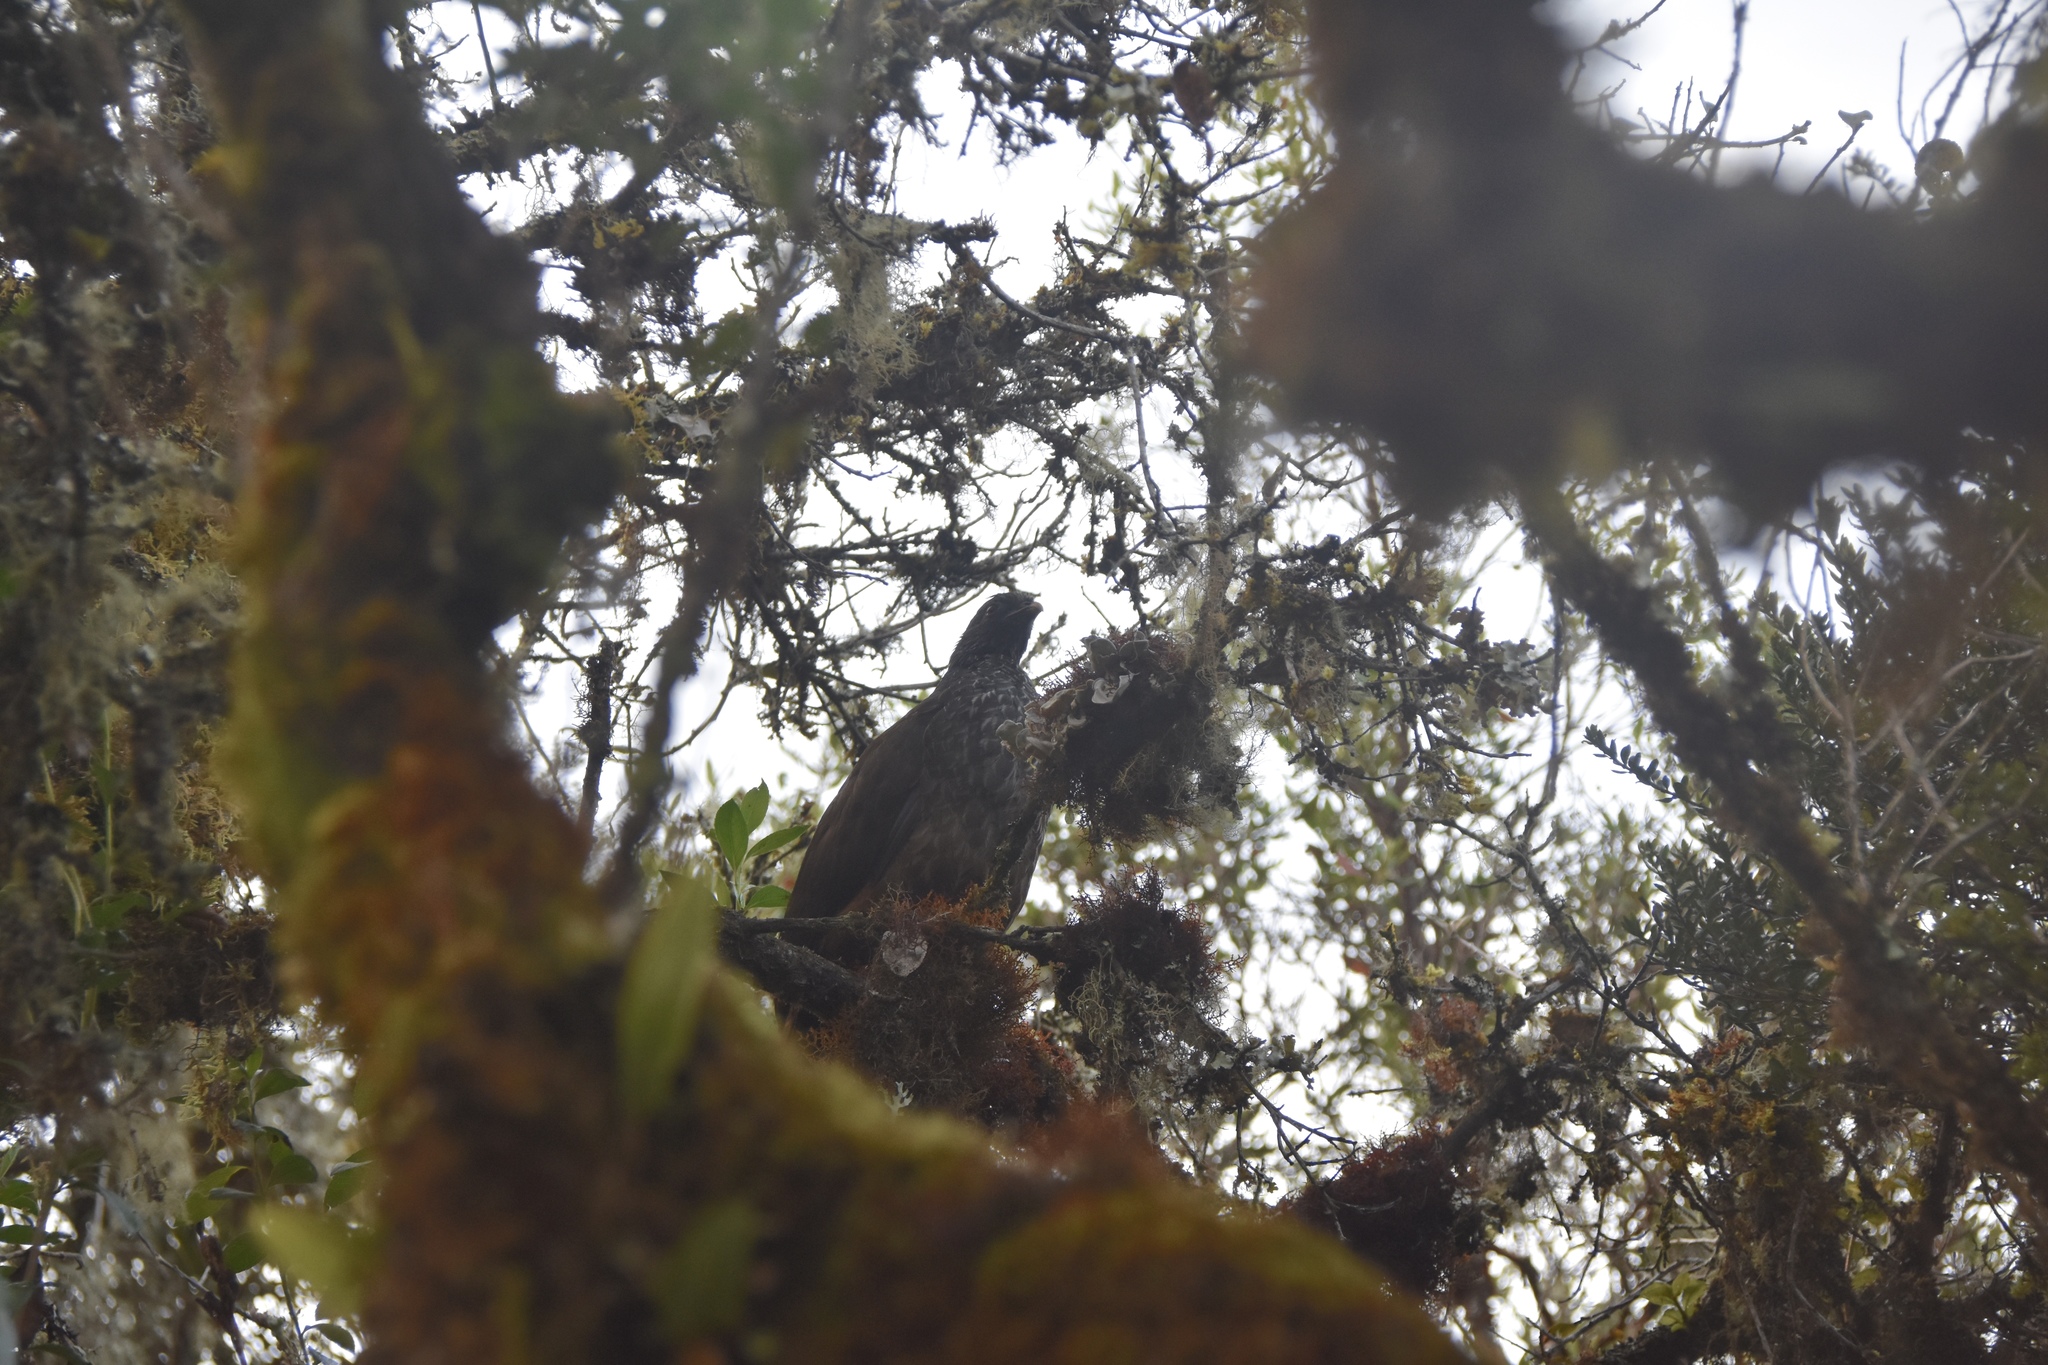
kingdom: Animalia
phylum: Chordata
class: Aves
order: Galliformes
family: Cracidae
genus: Penelope
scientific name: Penelope montagnii
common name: Andean guan
